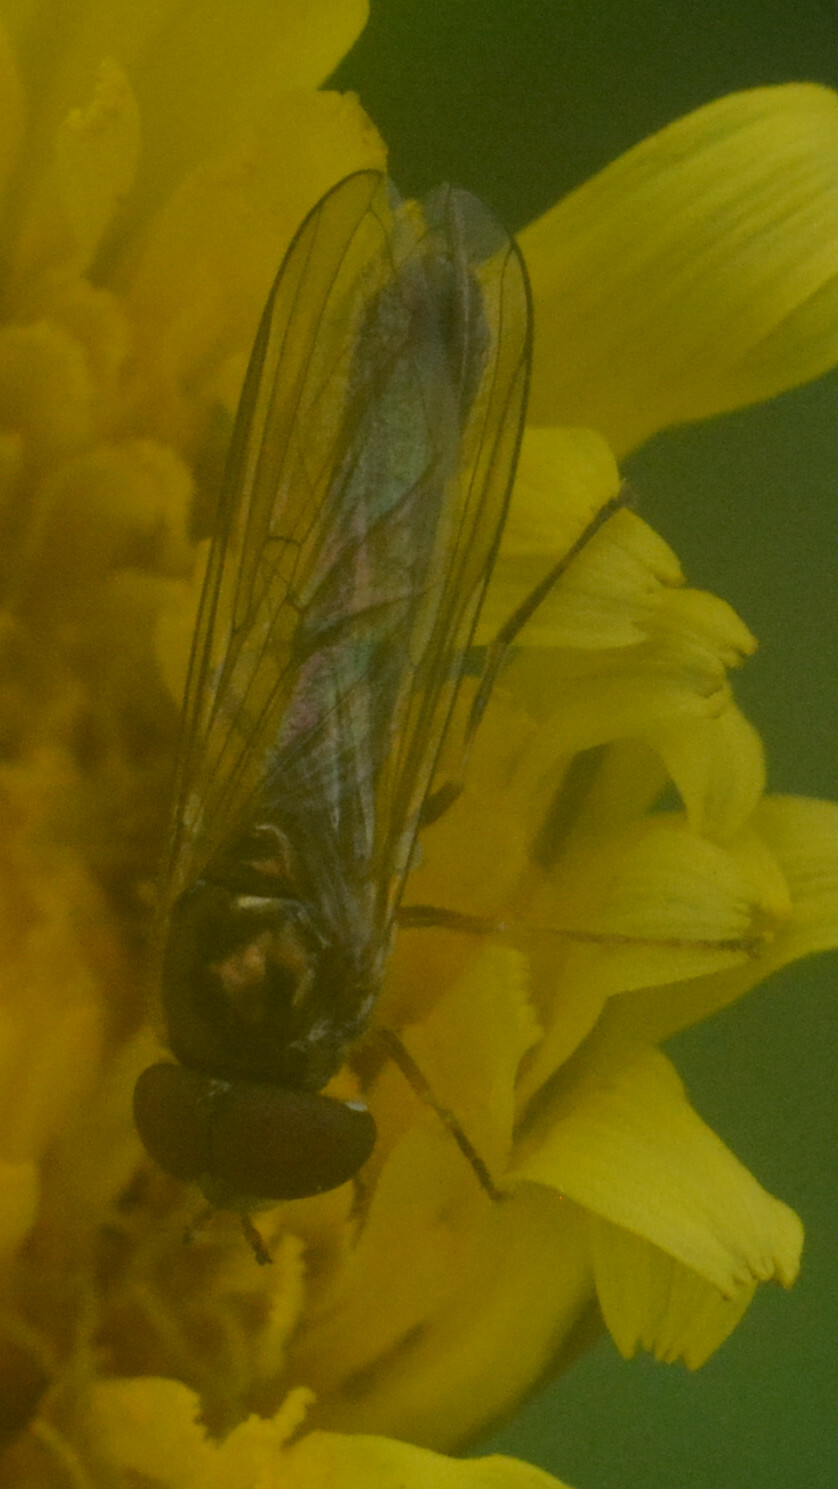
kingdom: Animalia
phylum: Arthropoda
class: Insecta
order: Diptera
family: Syrphidae
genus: Melanostoma
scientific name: Melanostoma scalare
